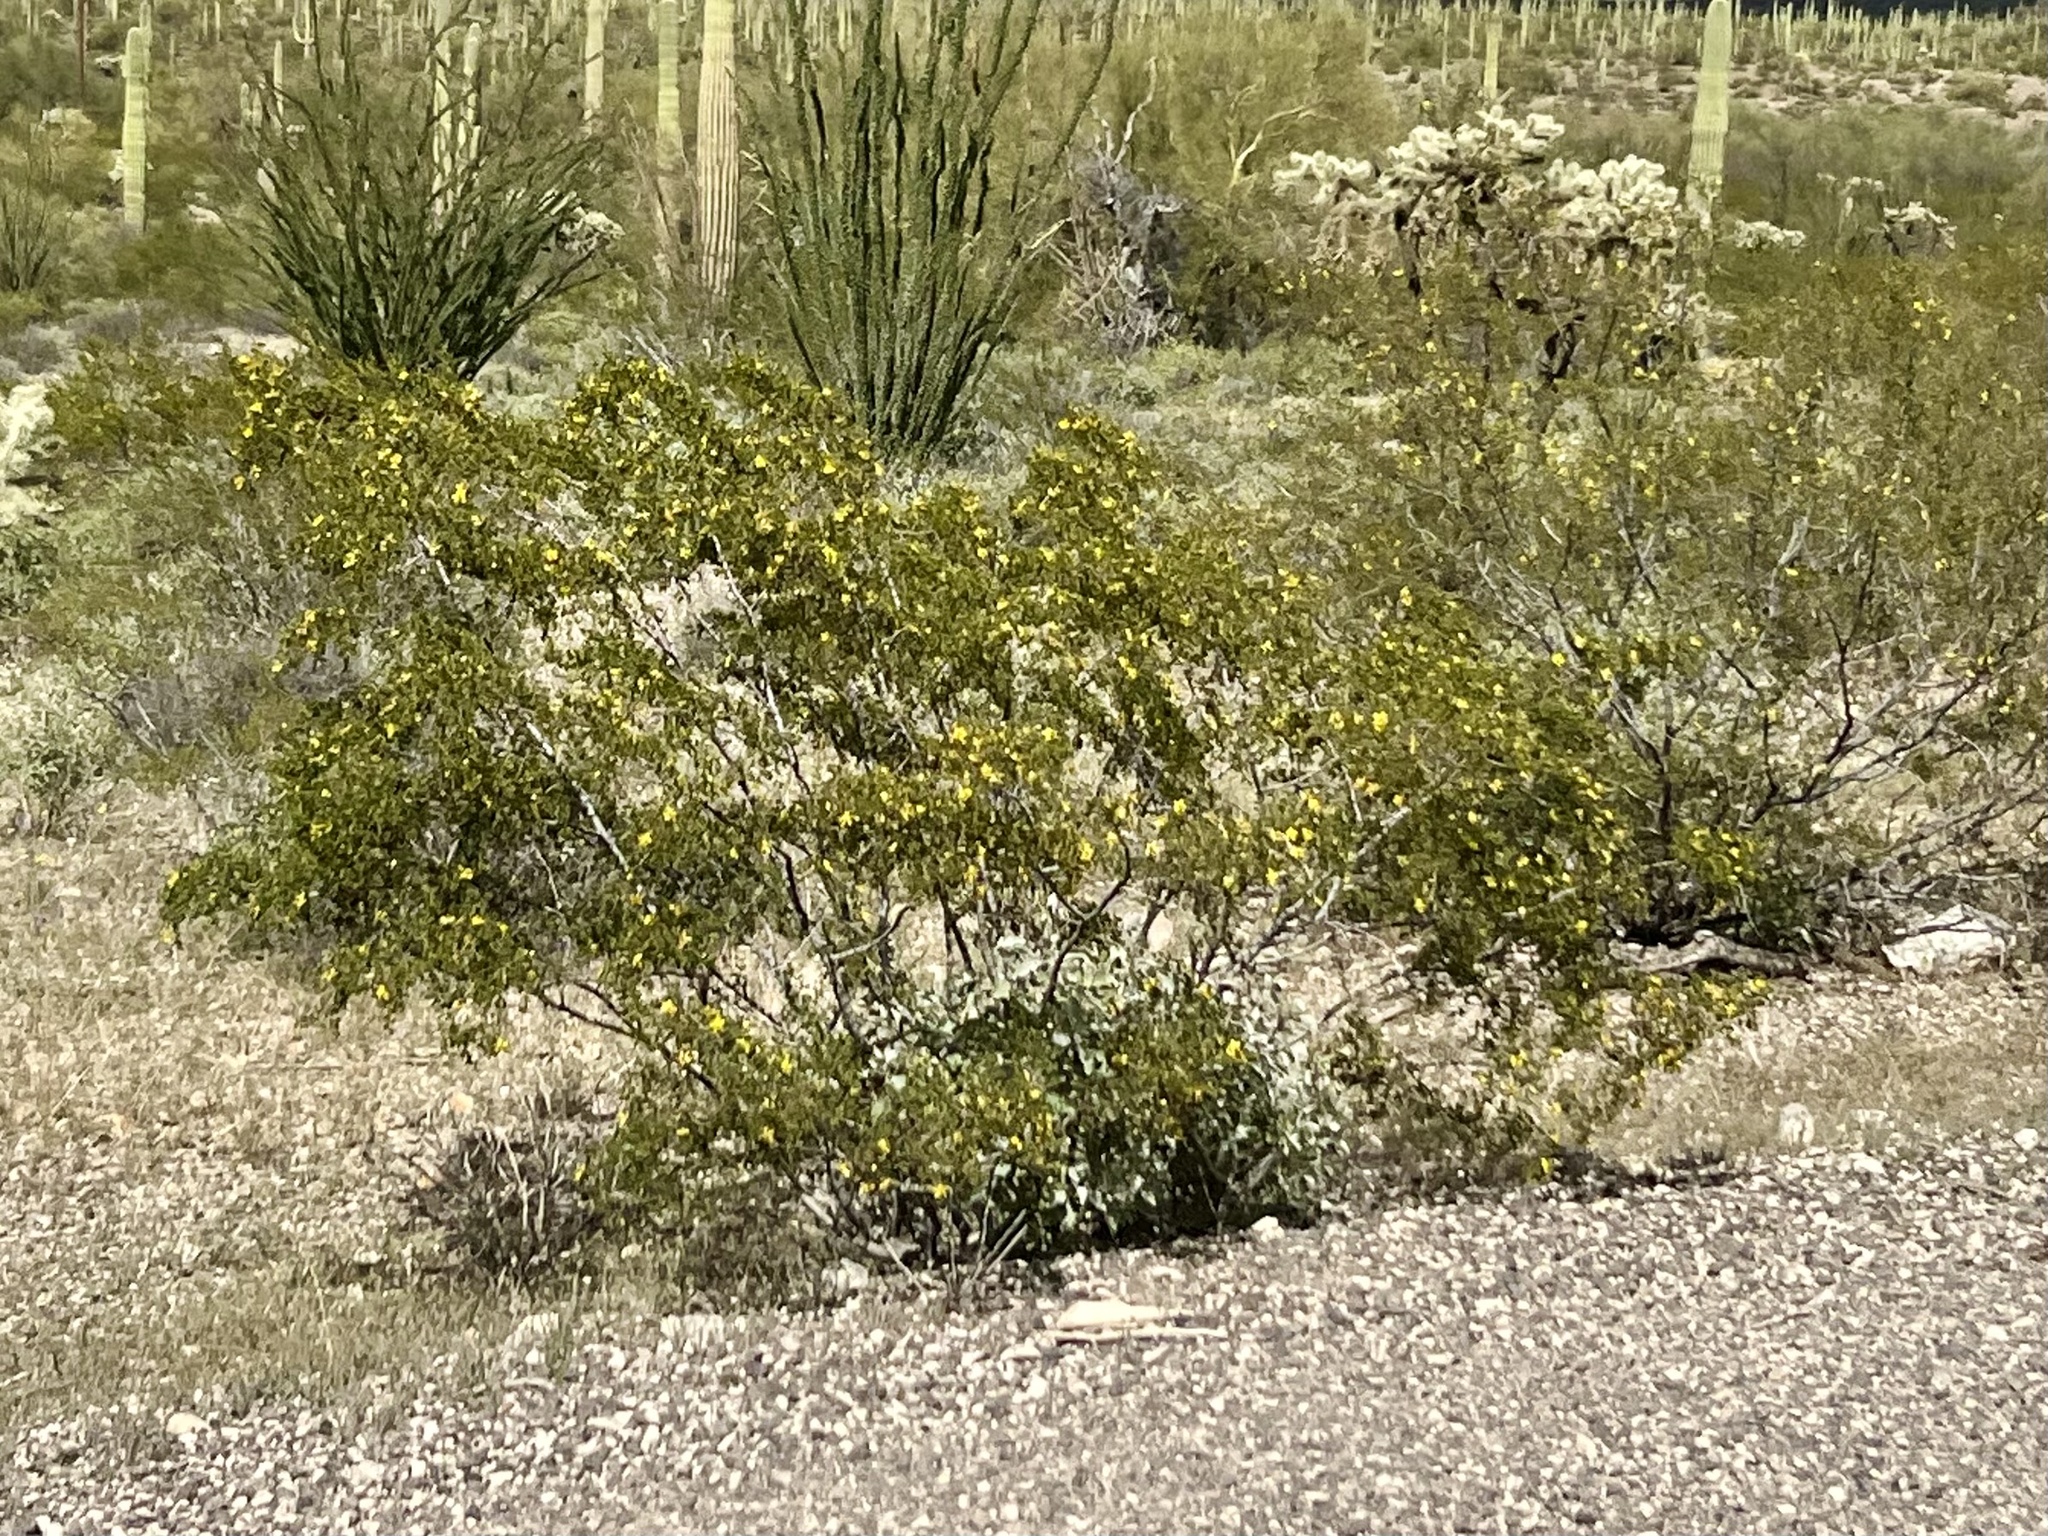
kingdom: Plantae
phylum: Tracheophyta
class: Magnoliopsida
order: Zygophyllales
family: Zygophyllaceae
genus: Larrea
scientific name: Larrea tridentata
